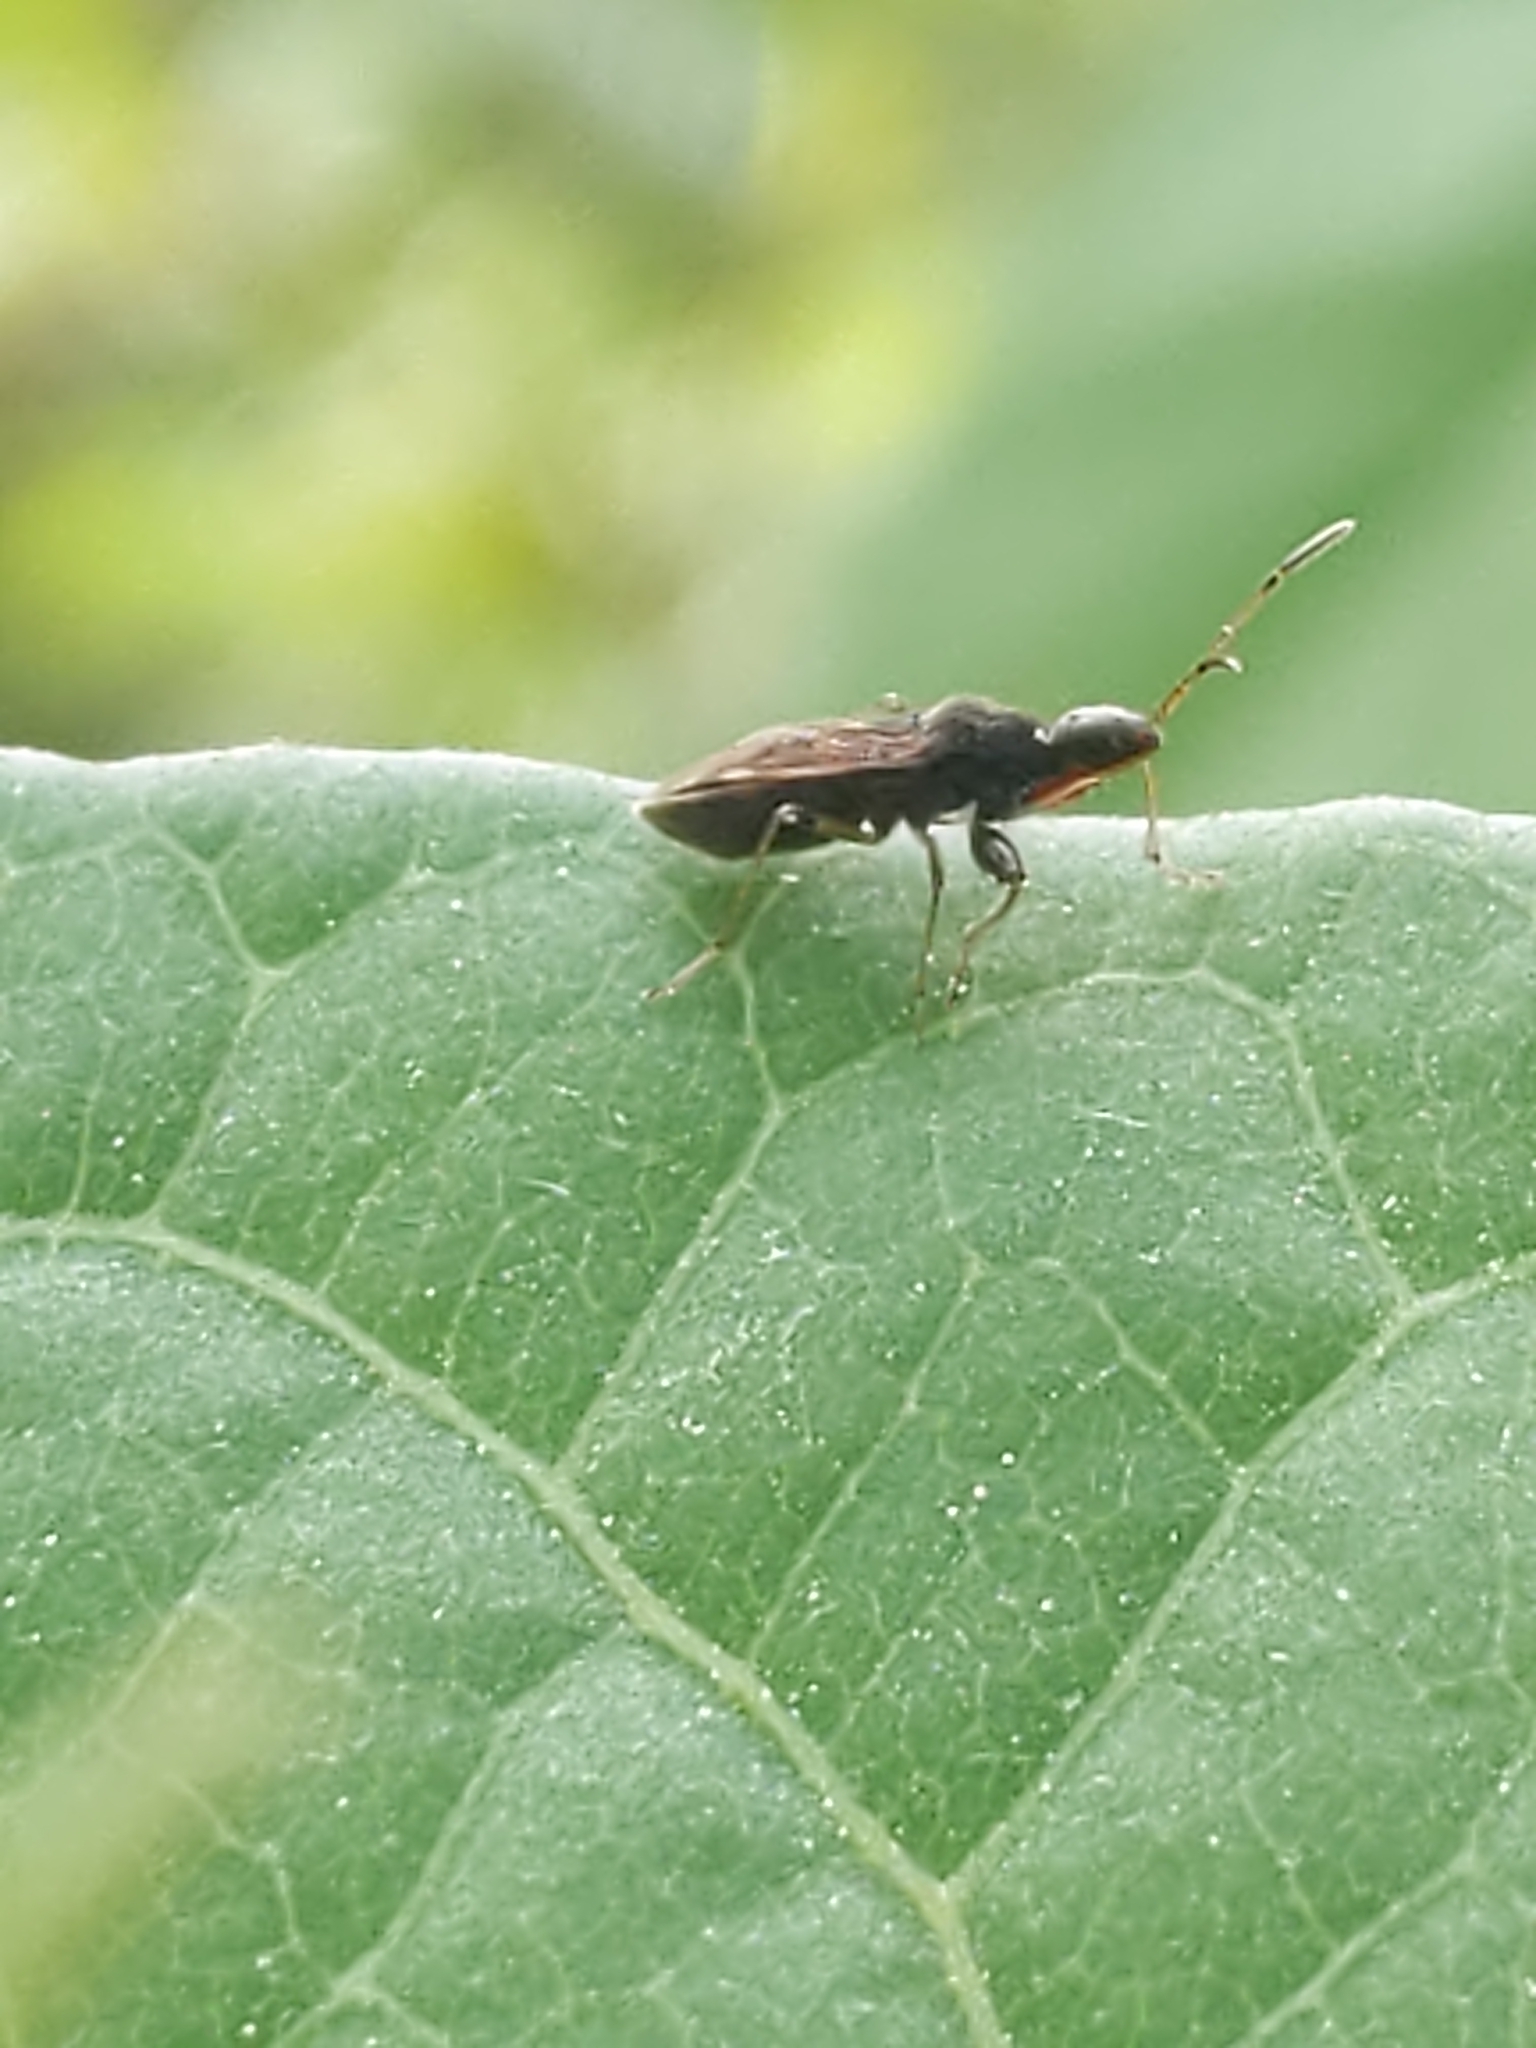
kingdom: Animalia
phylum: Arthropoda
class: Insecta
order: Hemiptera
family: Rhyparochromidae
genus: Heraeus
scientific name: Heraeus plebejus
